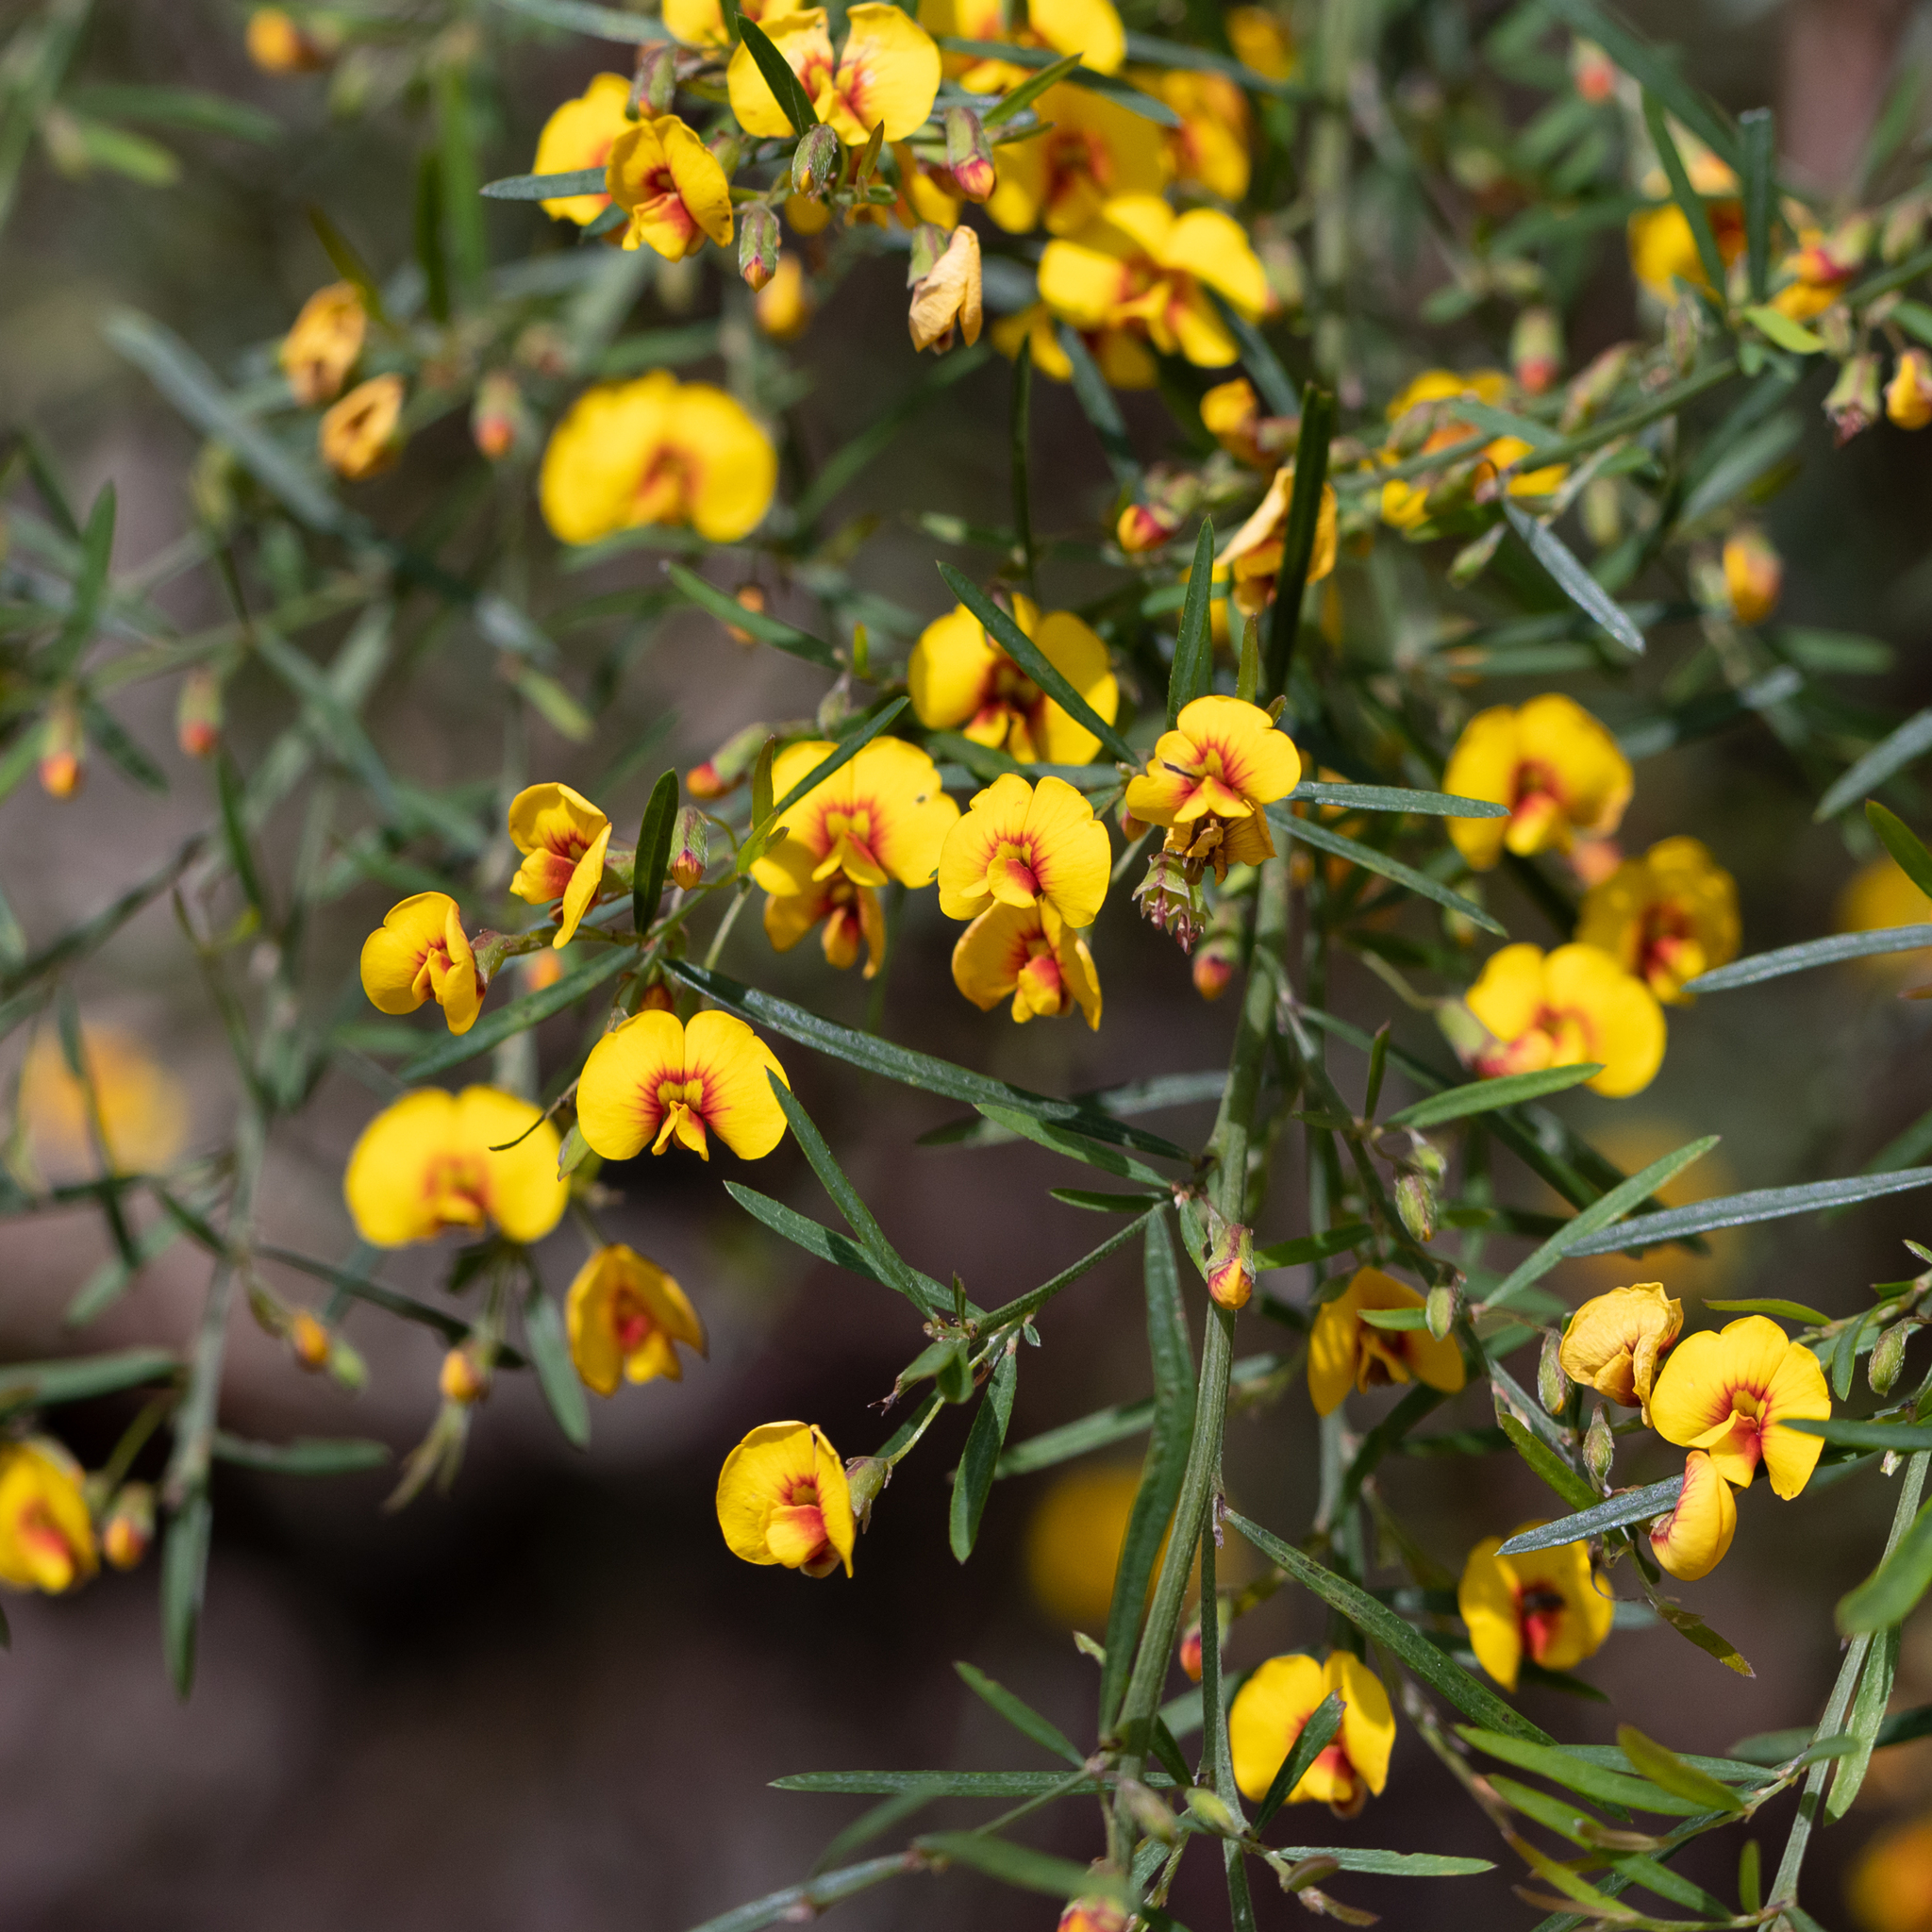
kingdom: Plantae
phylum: Tracheophyta
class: Magnoliopsida
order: Fabales
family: Fabaceae
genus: Bossiaea
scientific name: Bossiaea linophylla
